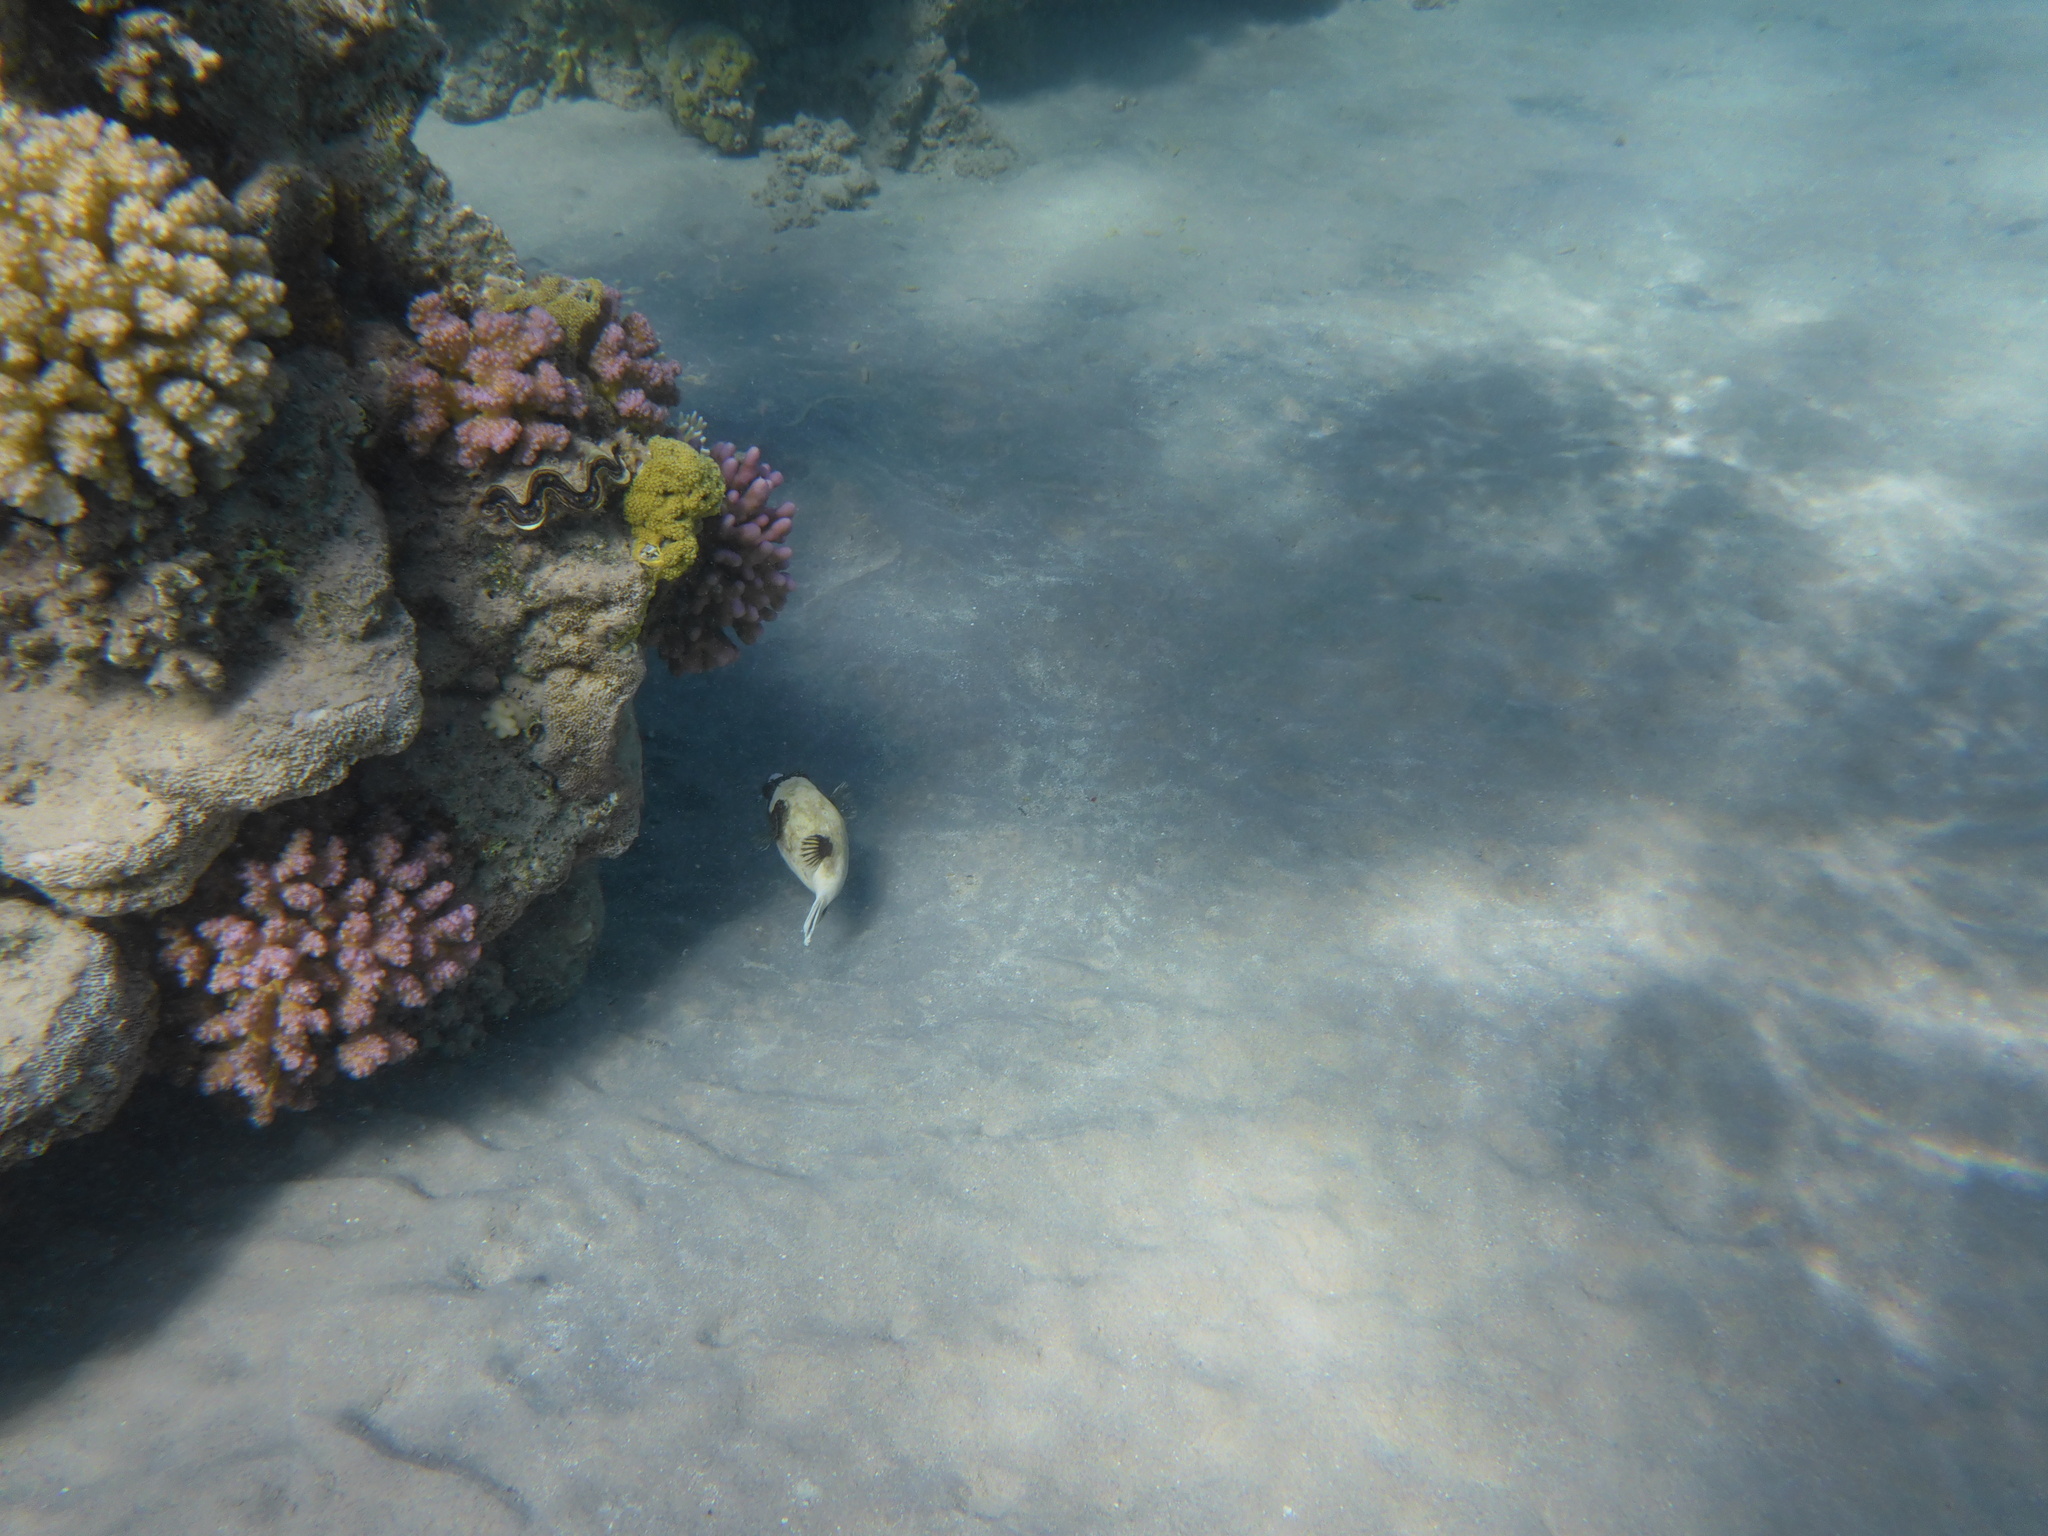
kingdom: Animalia
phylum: Chordata
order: Tetraodontiformes
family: Tetraodontidae
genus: Arothron
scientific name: Arothron diadematus
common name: Masked puffer
